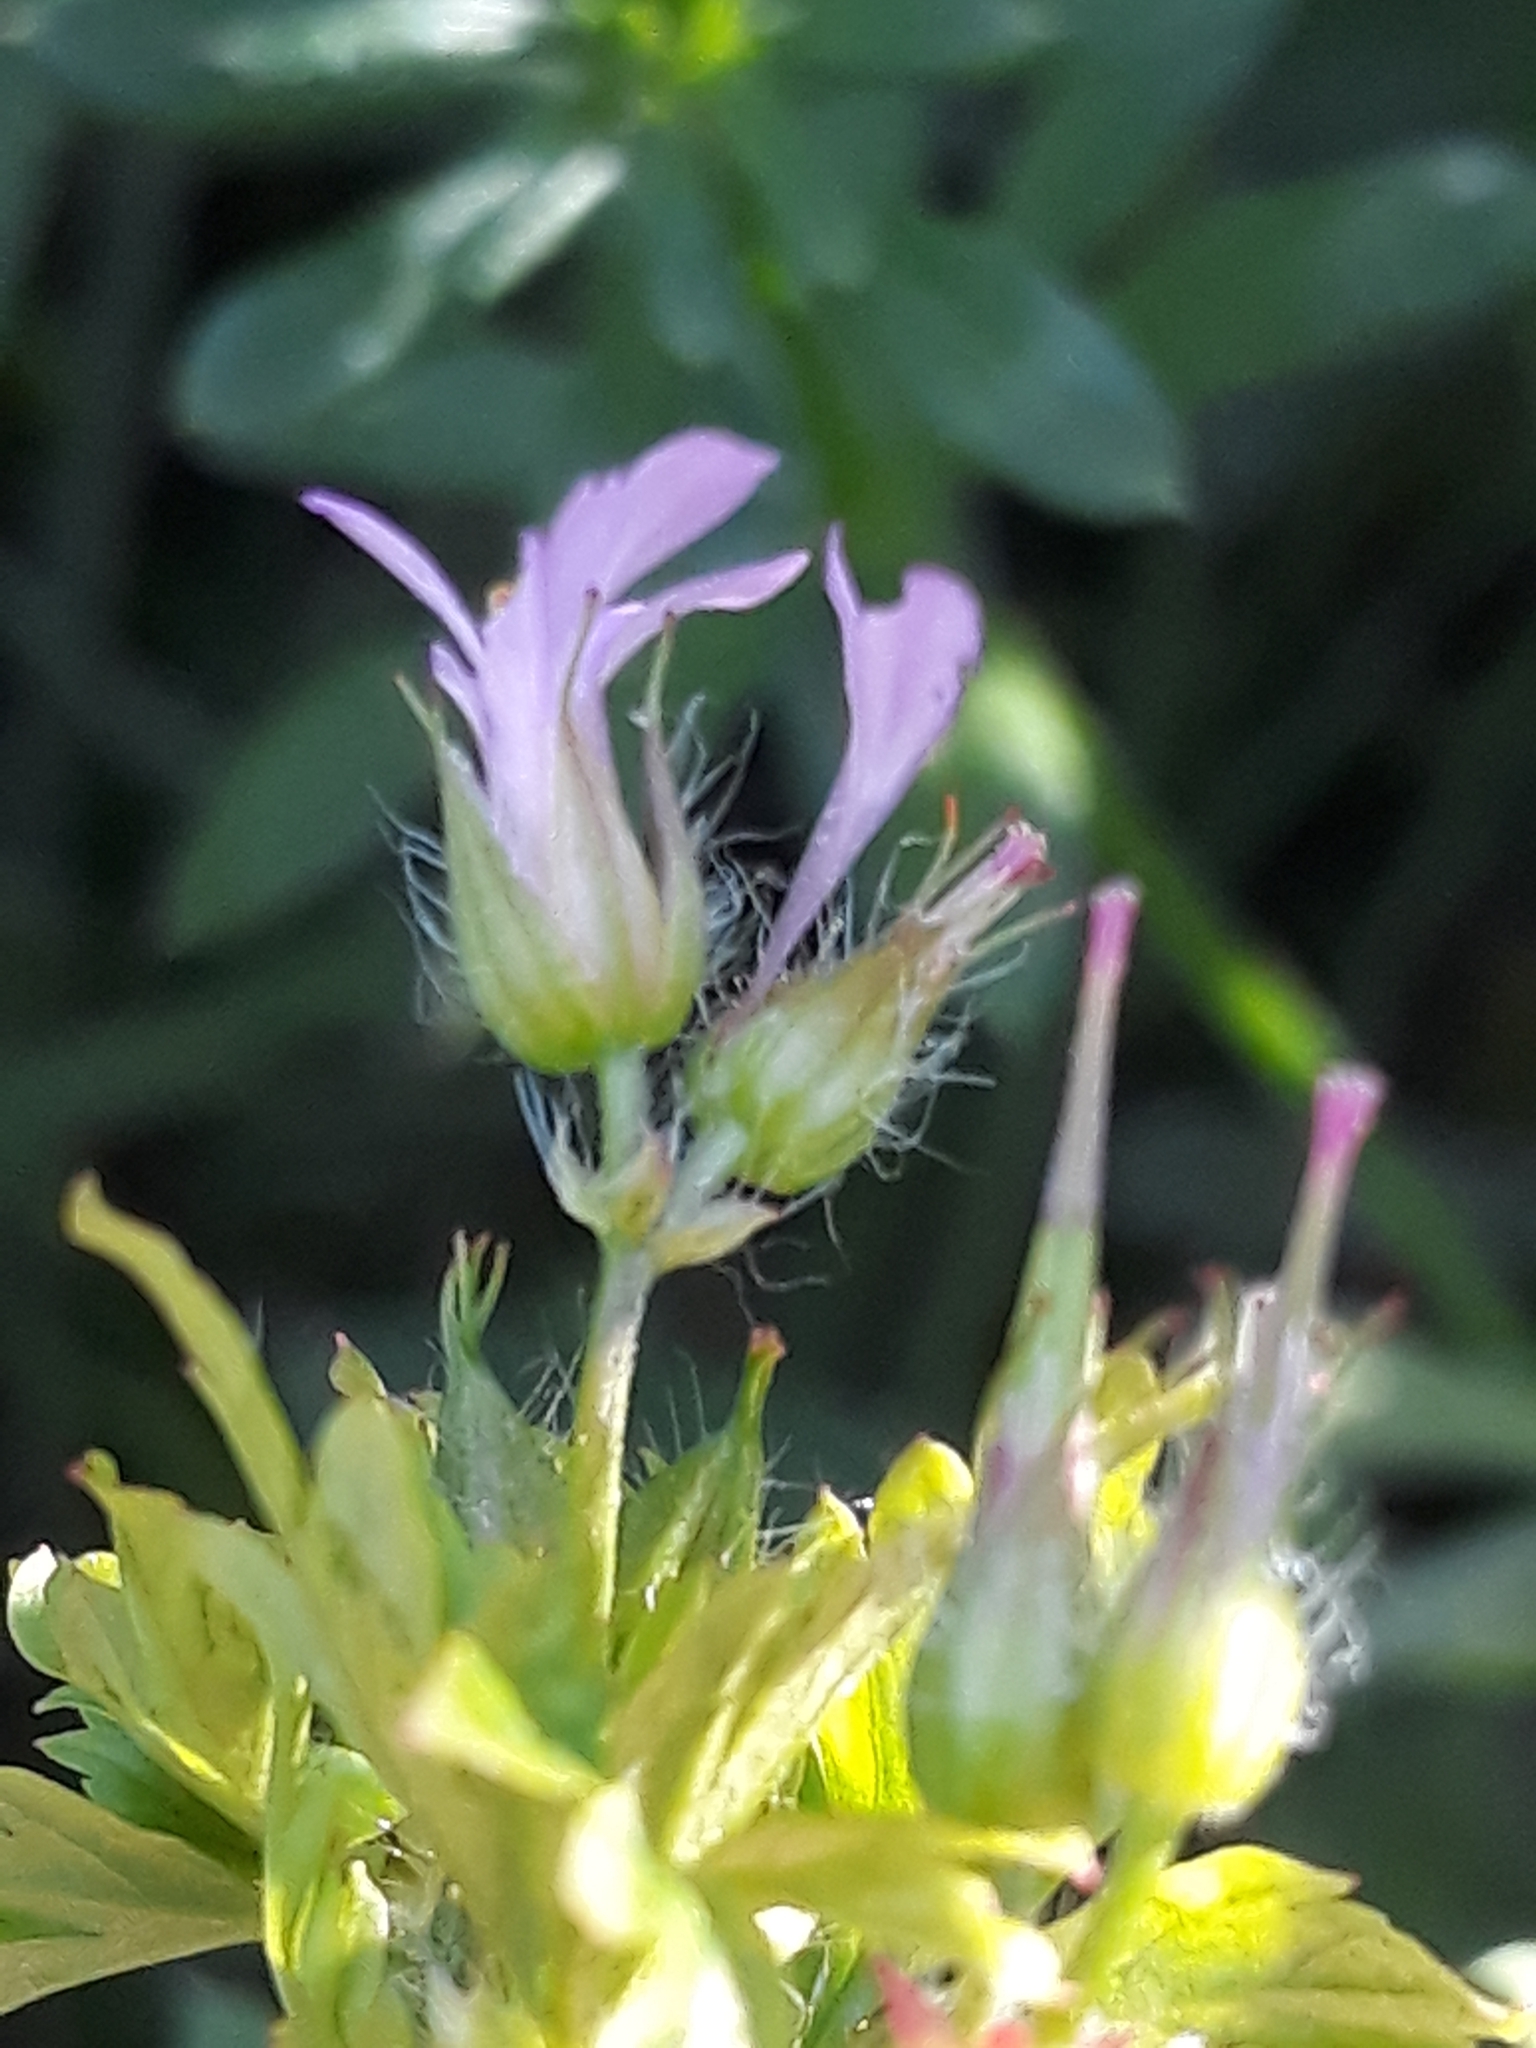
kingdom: Plantae
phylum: Tracheophyta
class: Magnoliopsida
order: Geraniales
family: Geraniaceae
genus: Geranium
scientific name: Geranium purpureum
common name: Little-robin
